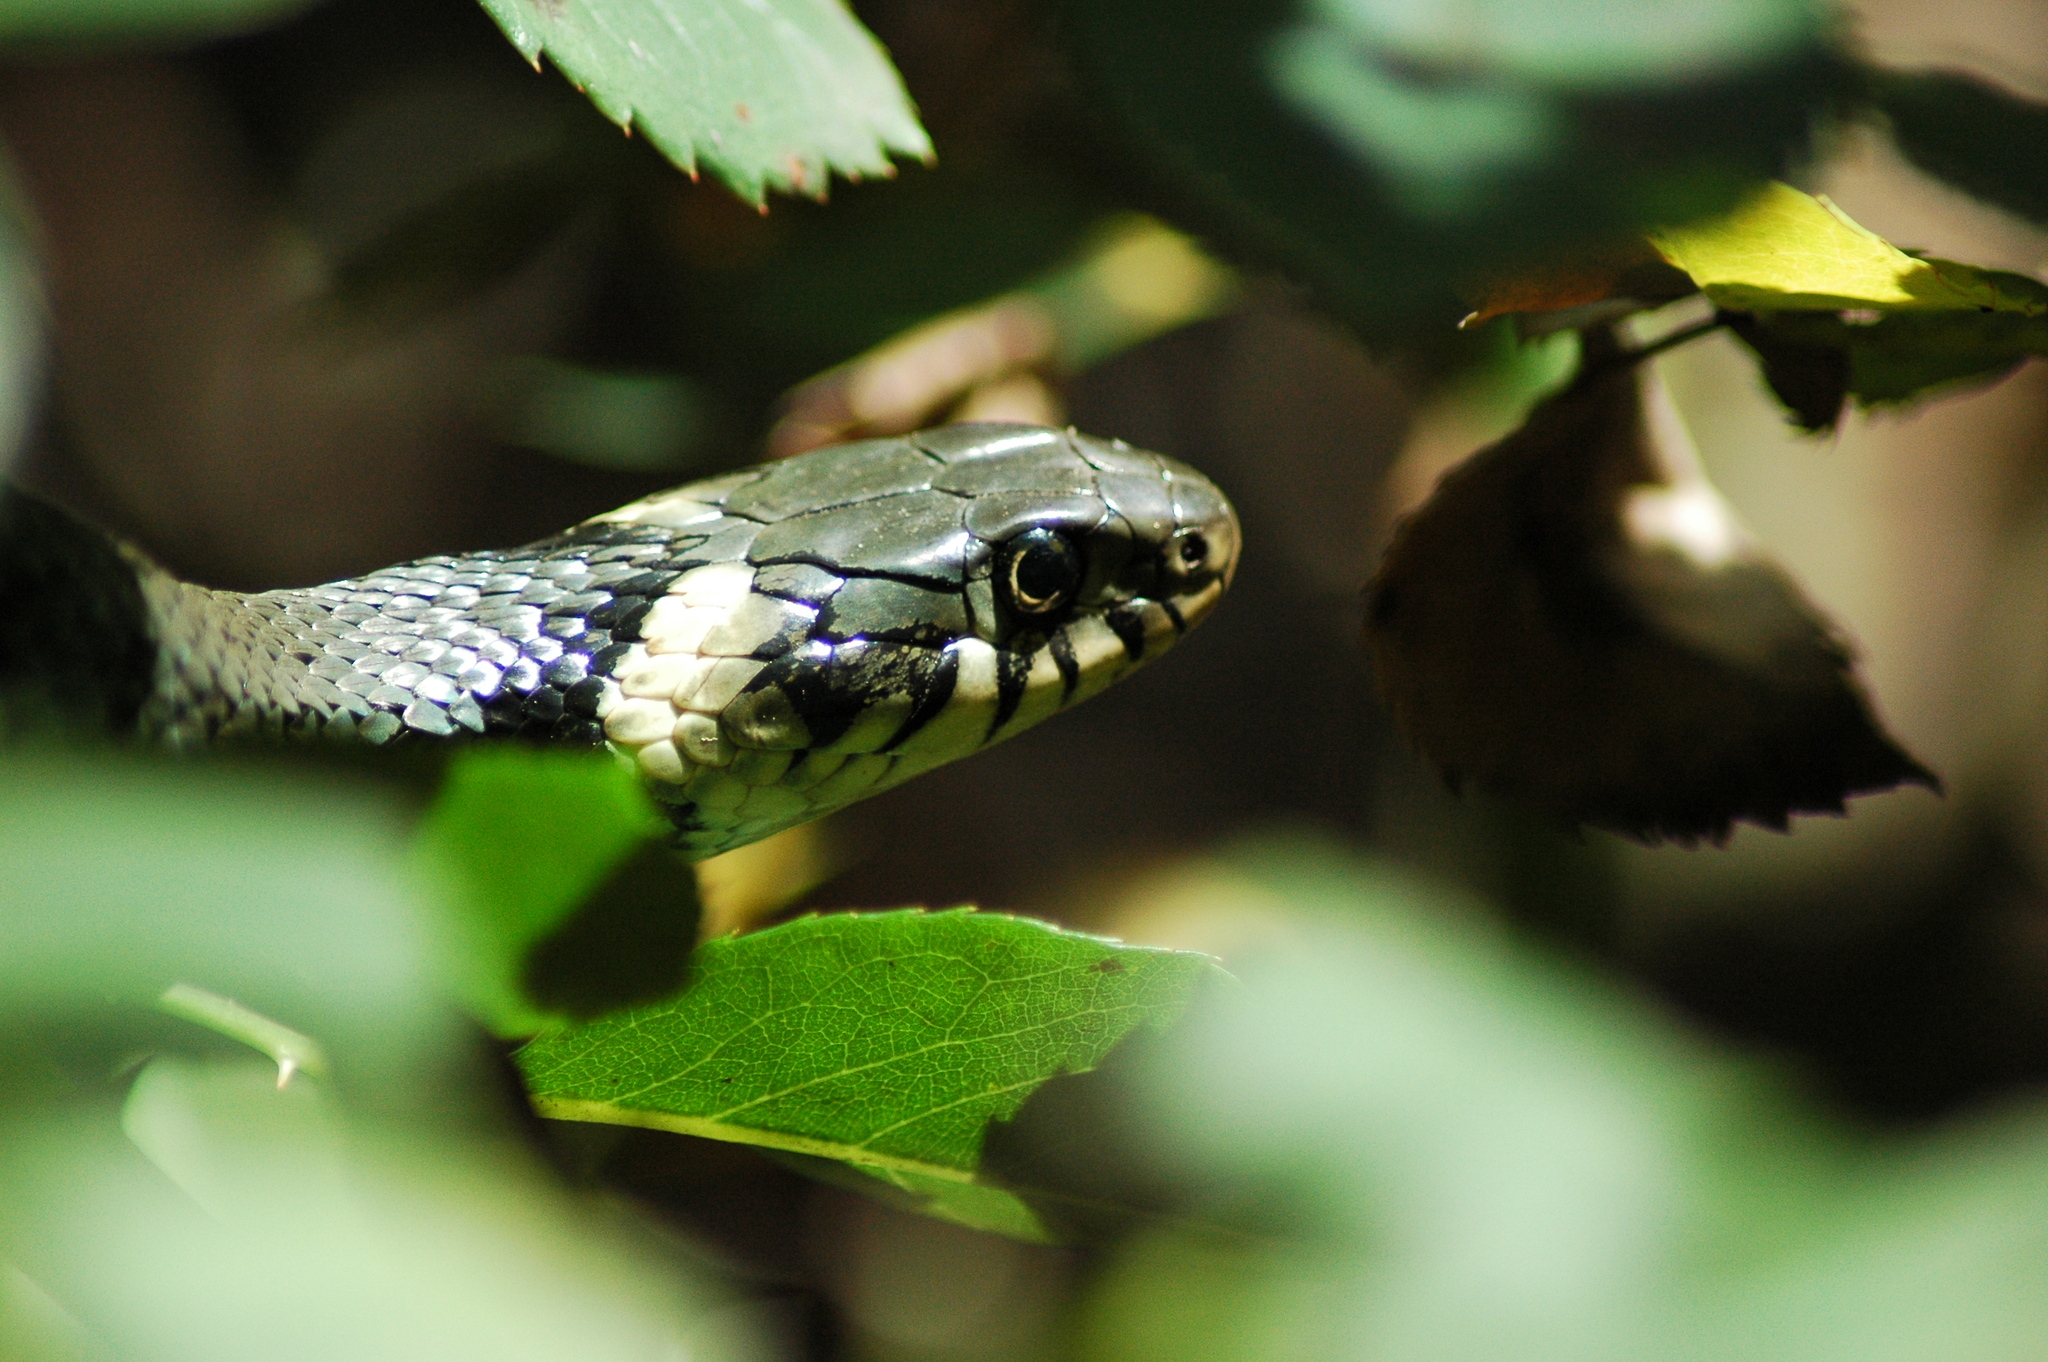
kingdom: Animalia
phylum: Chordata
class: Squamata
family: Colubridae
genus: Natrix
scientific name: Natrix natrix
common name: Grass snake
